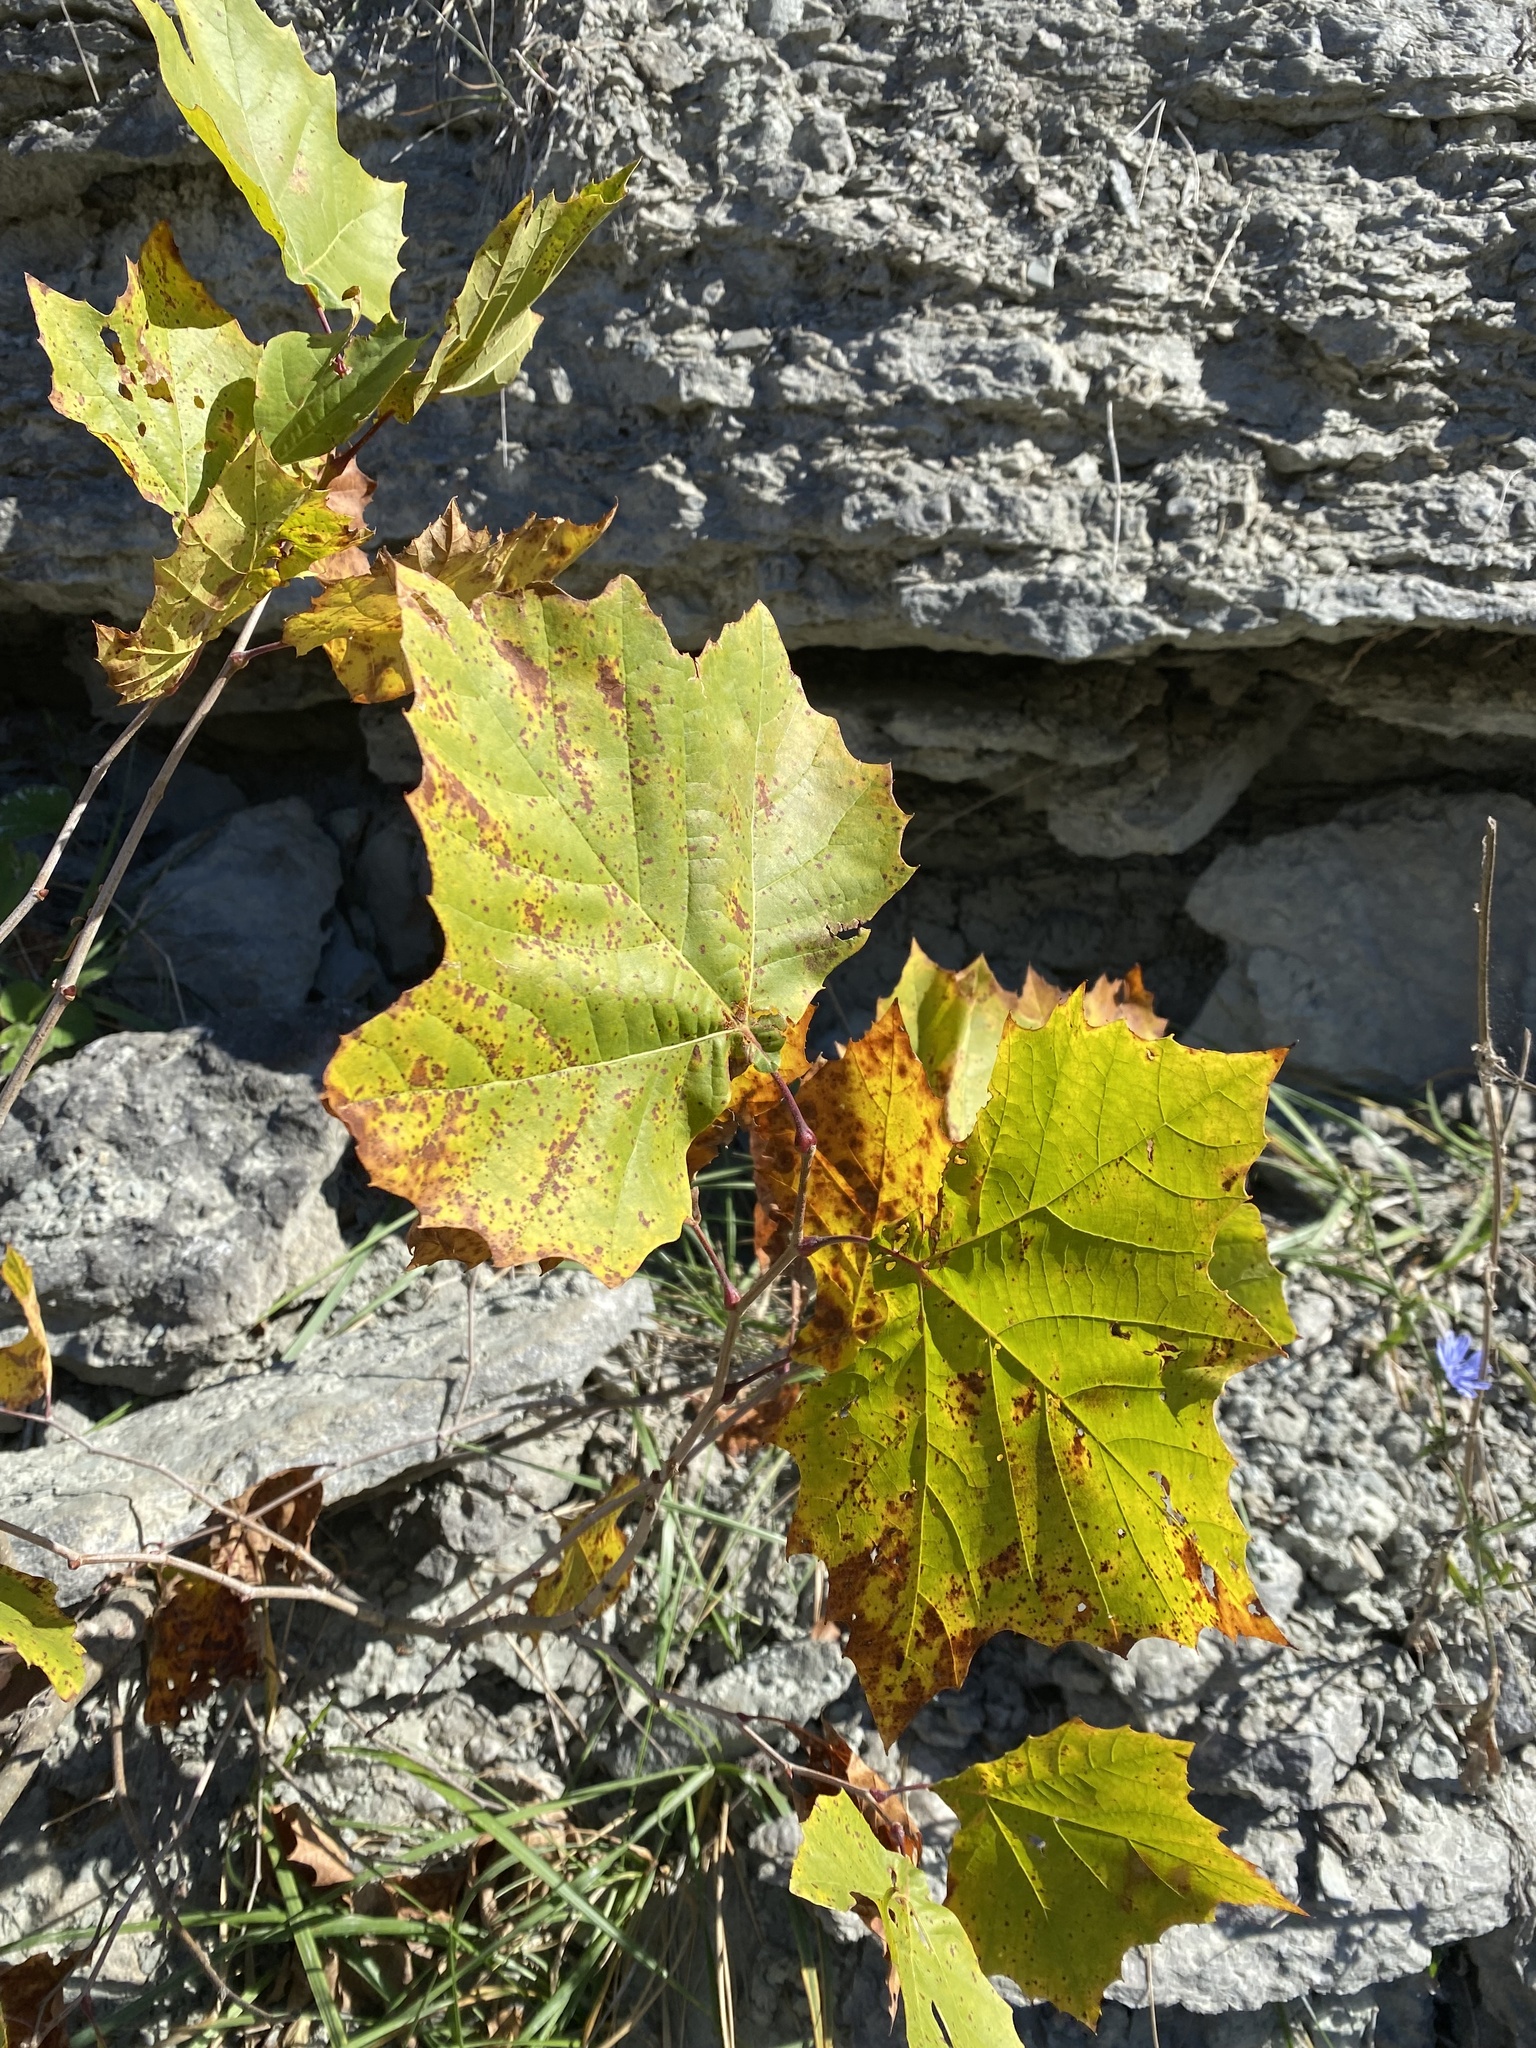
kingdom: Plantae
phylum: Tracheophyta
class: Magnoliopsida
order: Proteales
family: Platanaceae
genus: Platanus
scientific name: Platanus occidentalis
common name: American sycamore
